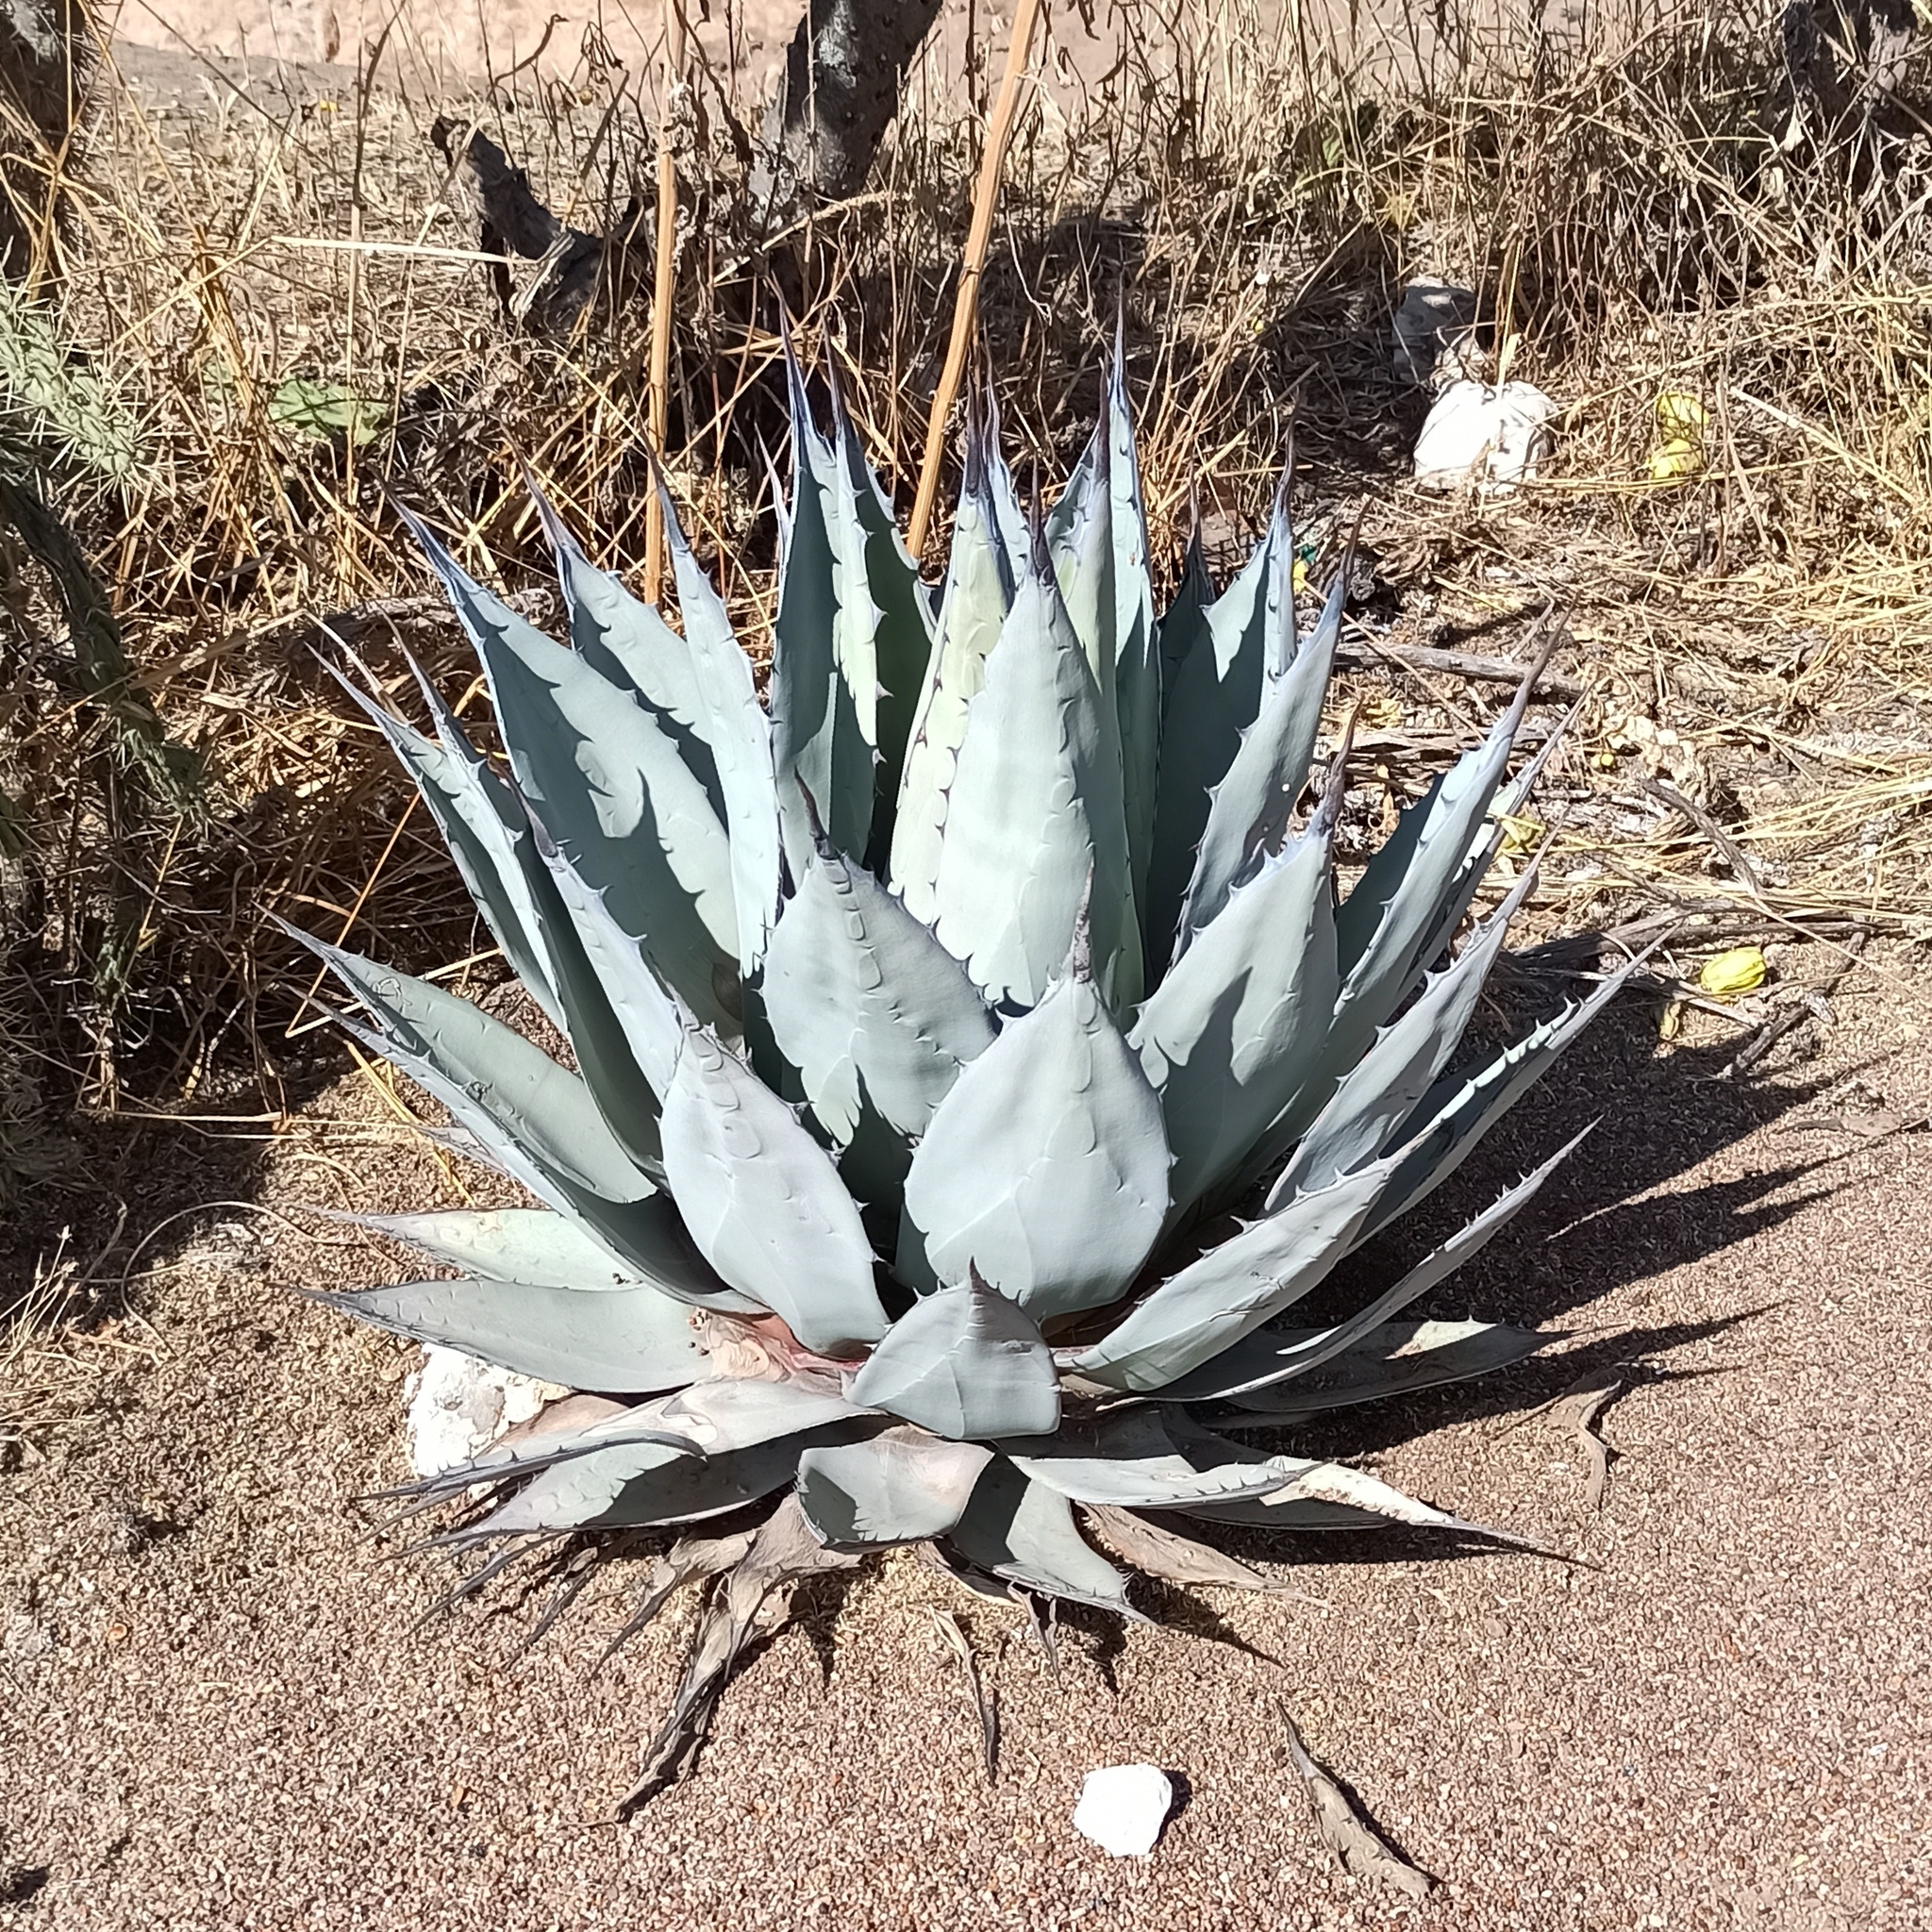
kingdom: Plantae
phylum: Tracheophyta
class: Liliopsida
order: Asparagales
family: Asparagaceae
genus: Agave
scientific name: Agave applanata
